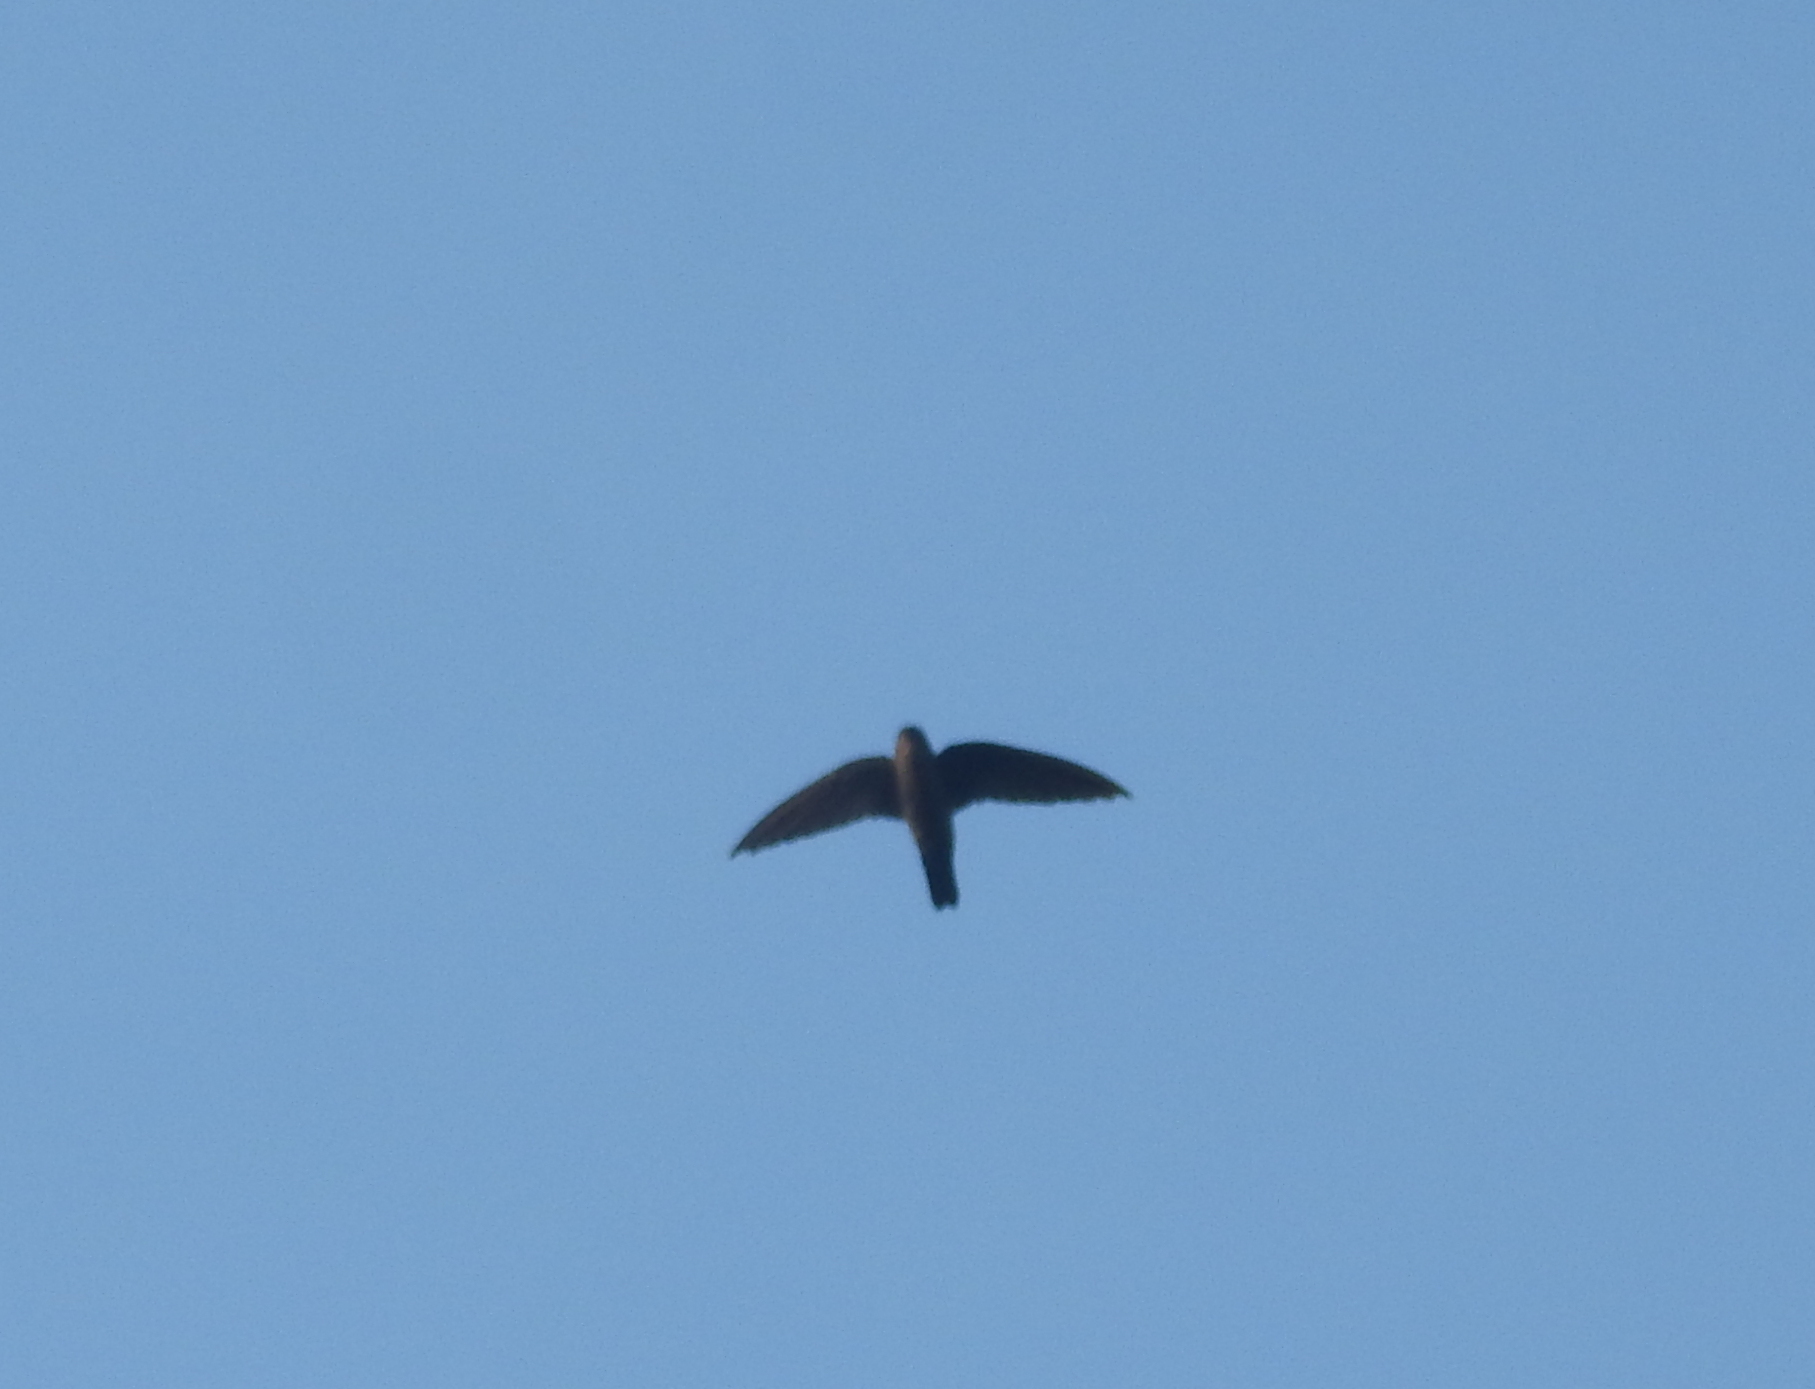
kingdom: Animalia
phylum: Chordata
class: Aves
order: Apodiformes
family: Apodidae
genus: Aerodramus
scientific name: Aerodramus
